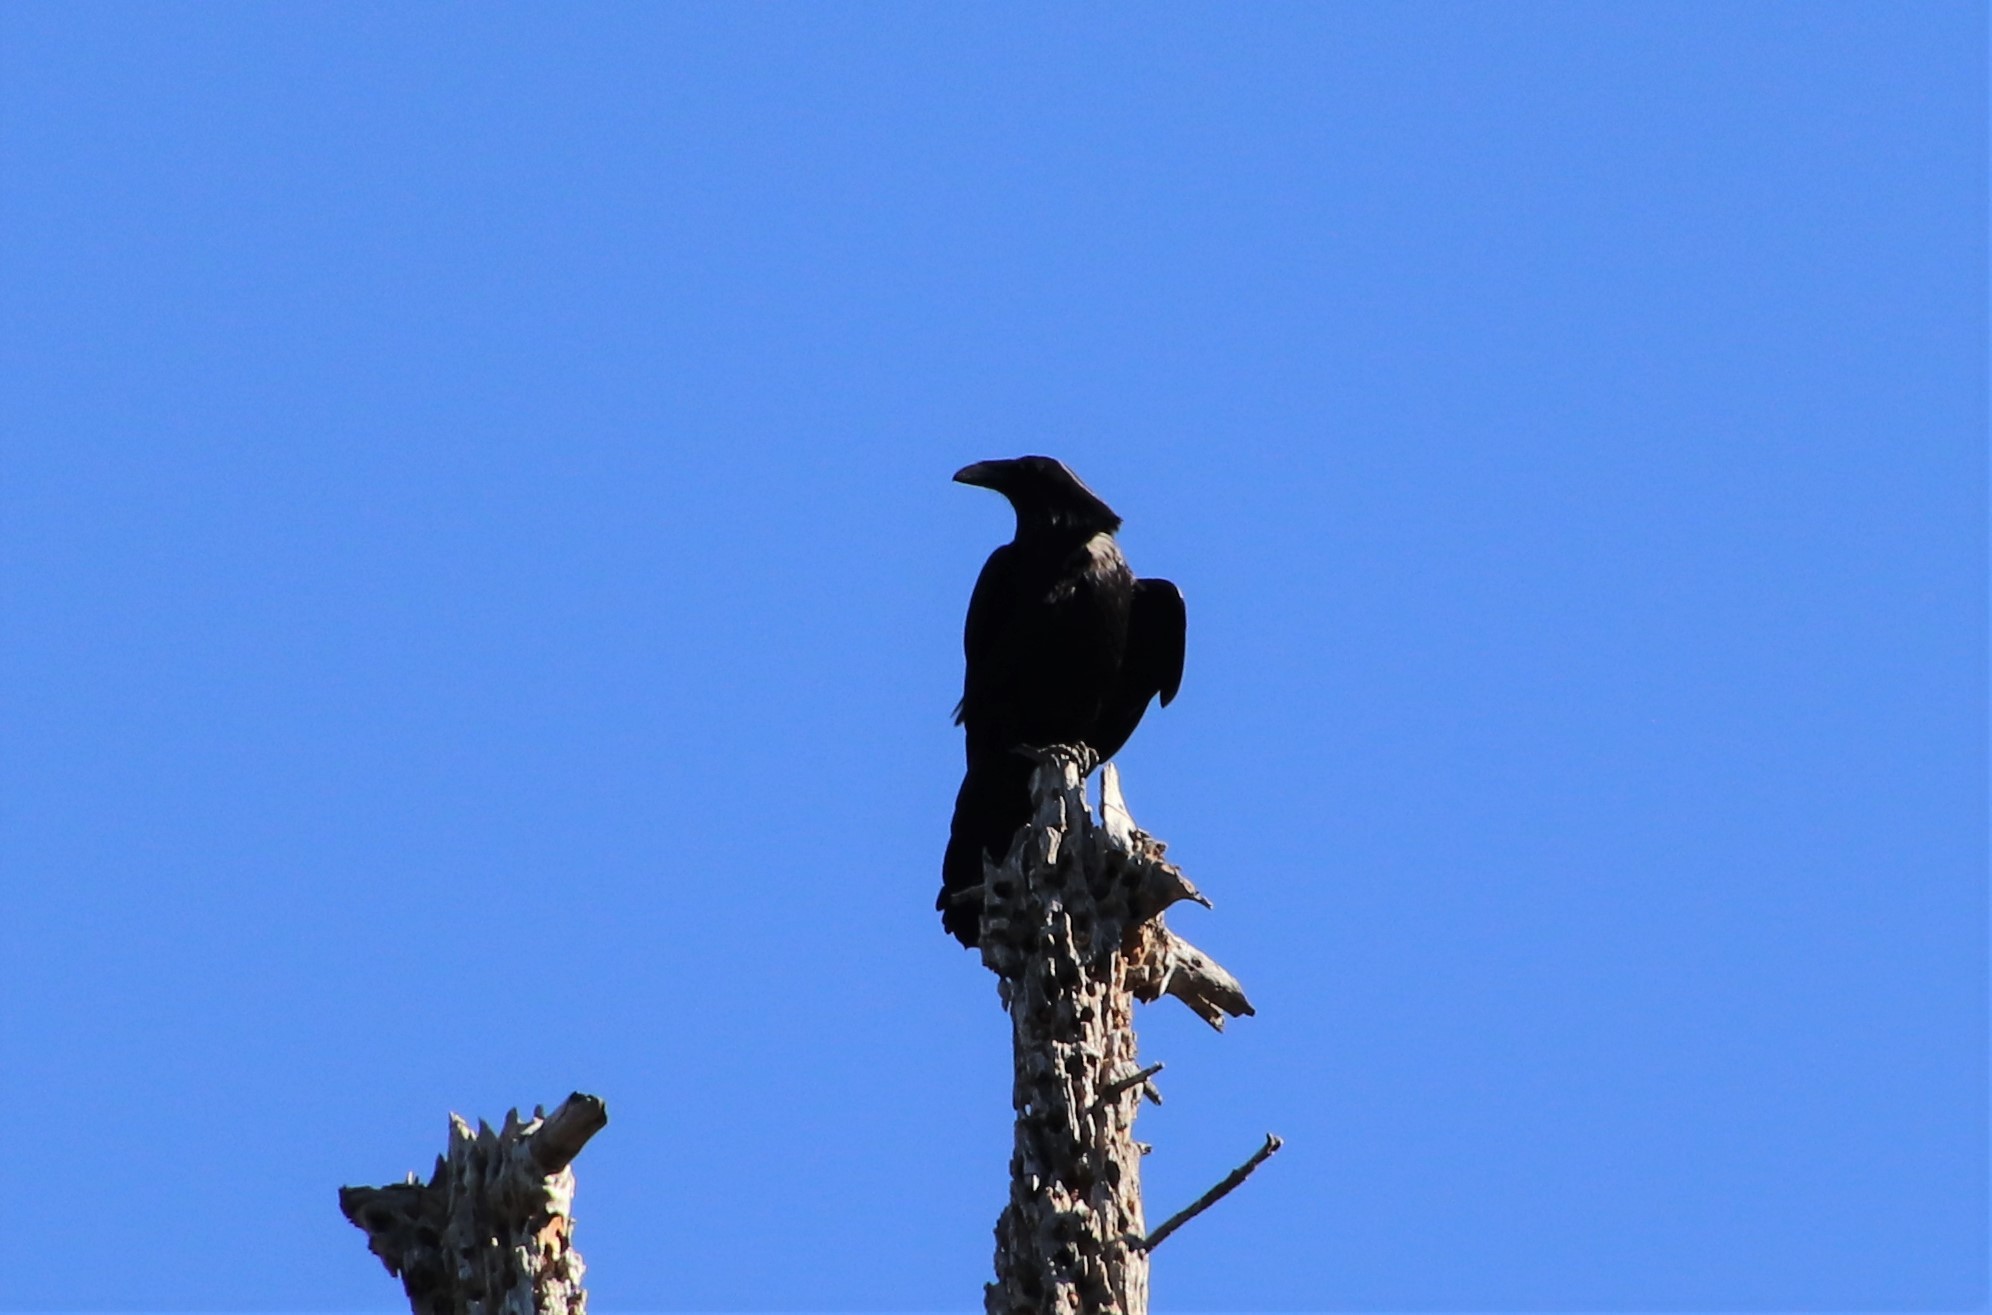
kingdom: Animalia
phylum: Chordata
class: Aves
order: Passeriformes
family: Corvidae
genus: Corvus
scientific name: Corvus corax
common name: Common raven
